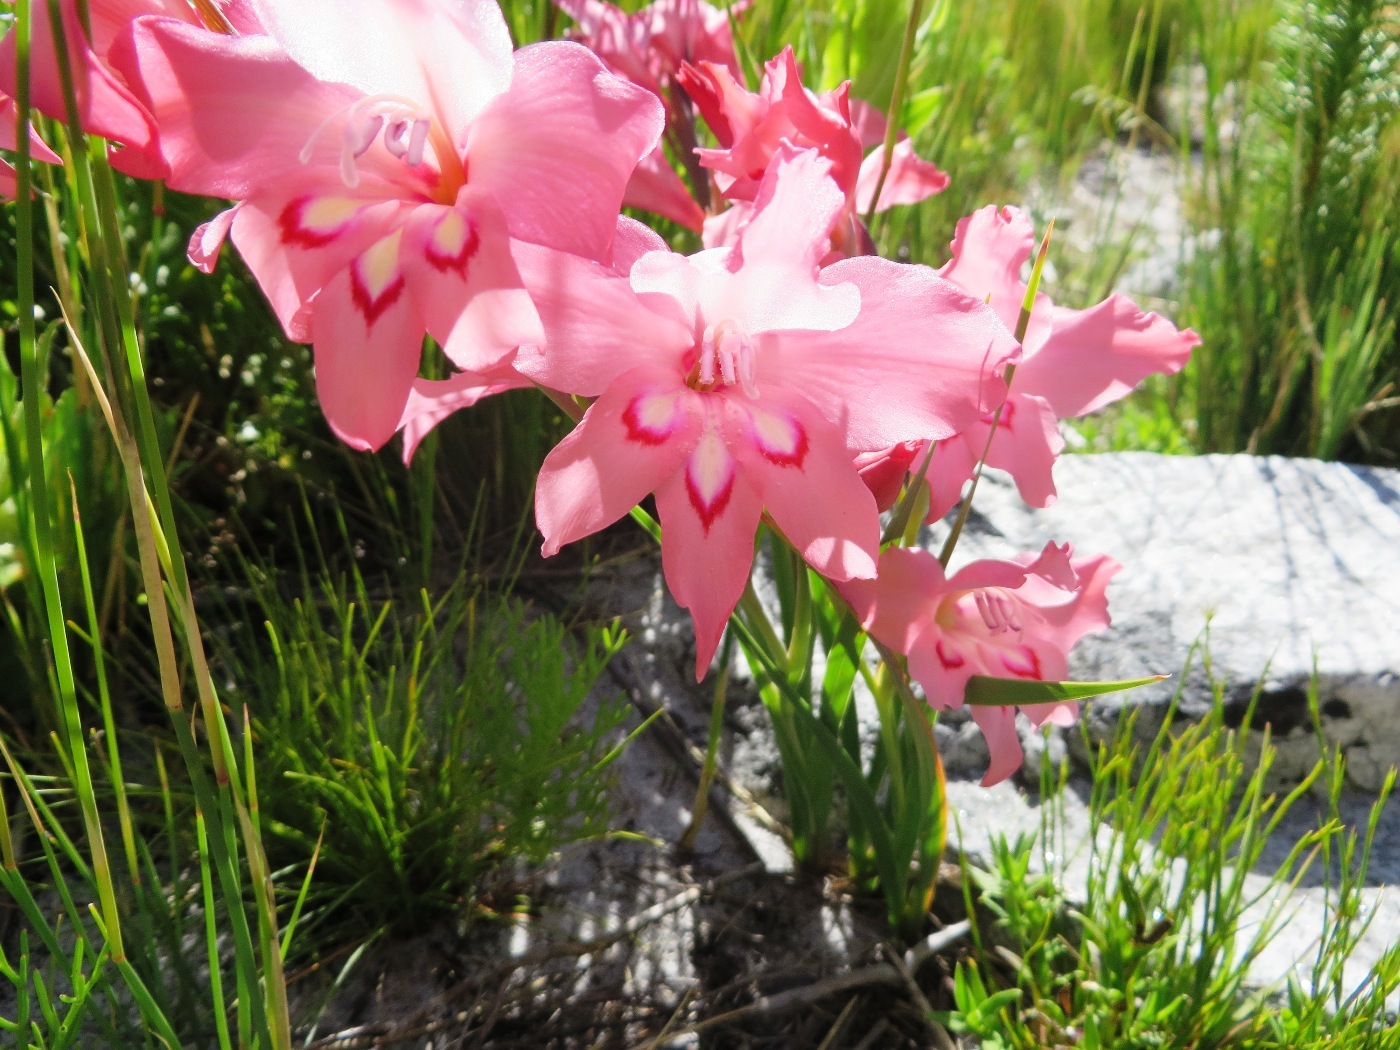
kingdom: Plantae
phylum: Tracheophyta
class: Liliopsida
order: Asparagales
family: Iridaceae
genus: Gladiolus
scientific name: Gladiolus carneus
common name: Painted-lady
